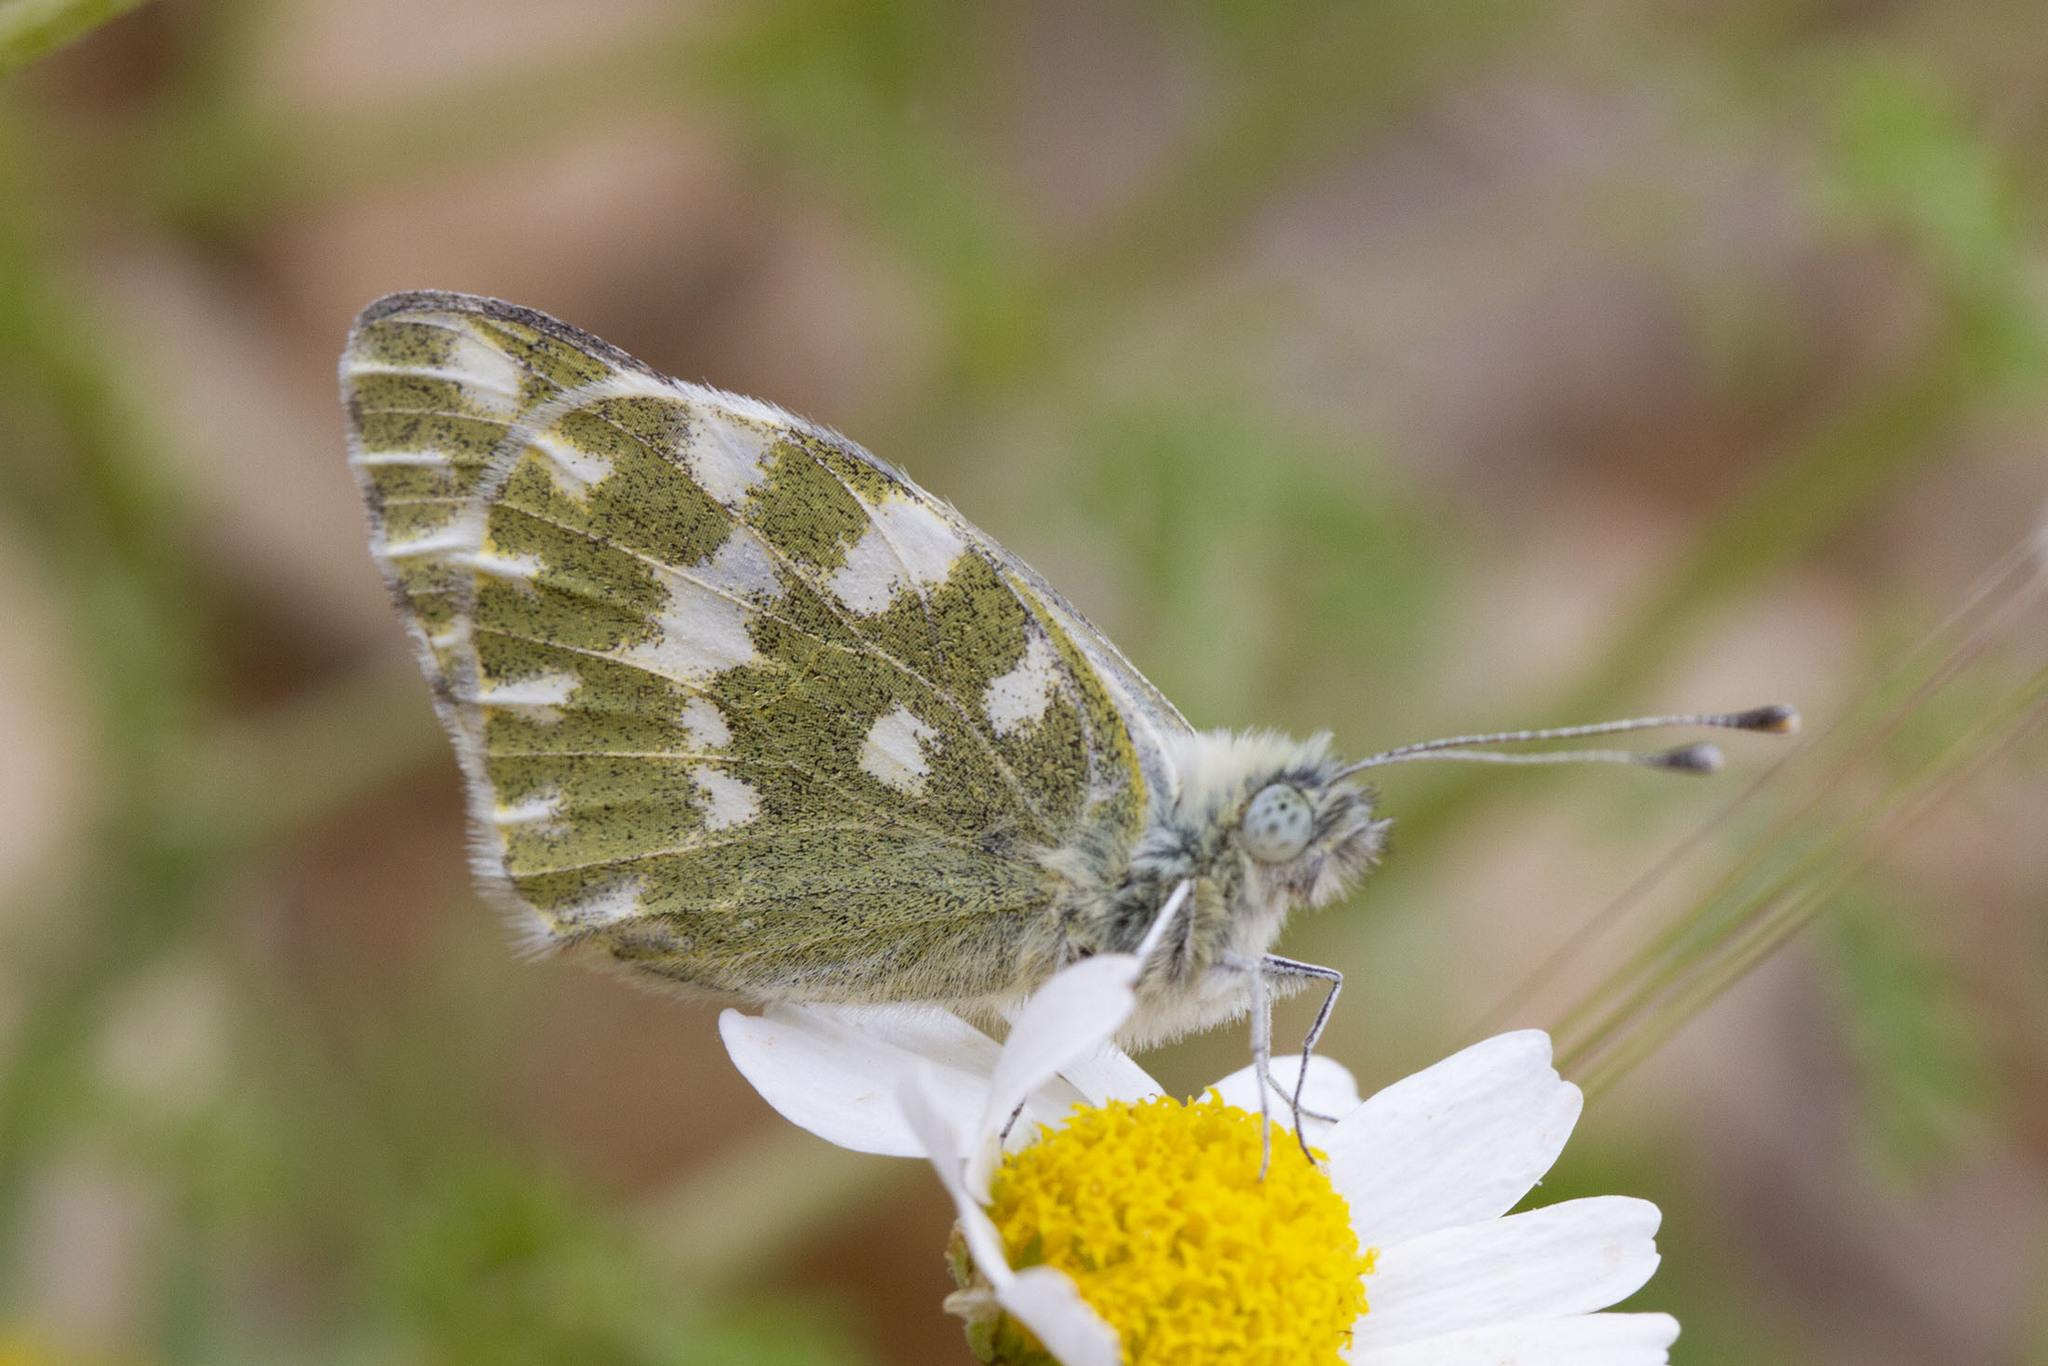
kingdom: Animalia
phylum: Arthropoda
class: Insecta
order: Lepidoptera
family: Pieridae
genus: Pontia
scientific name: Pontia daplidice
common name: Bath white
